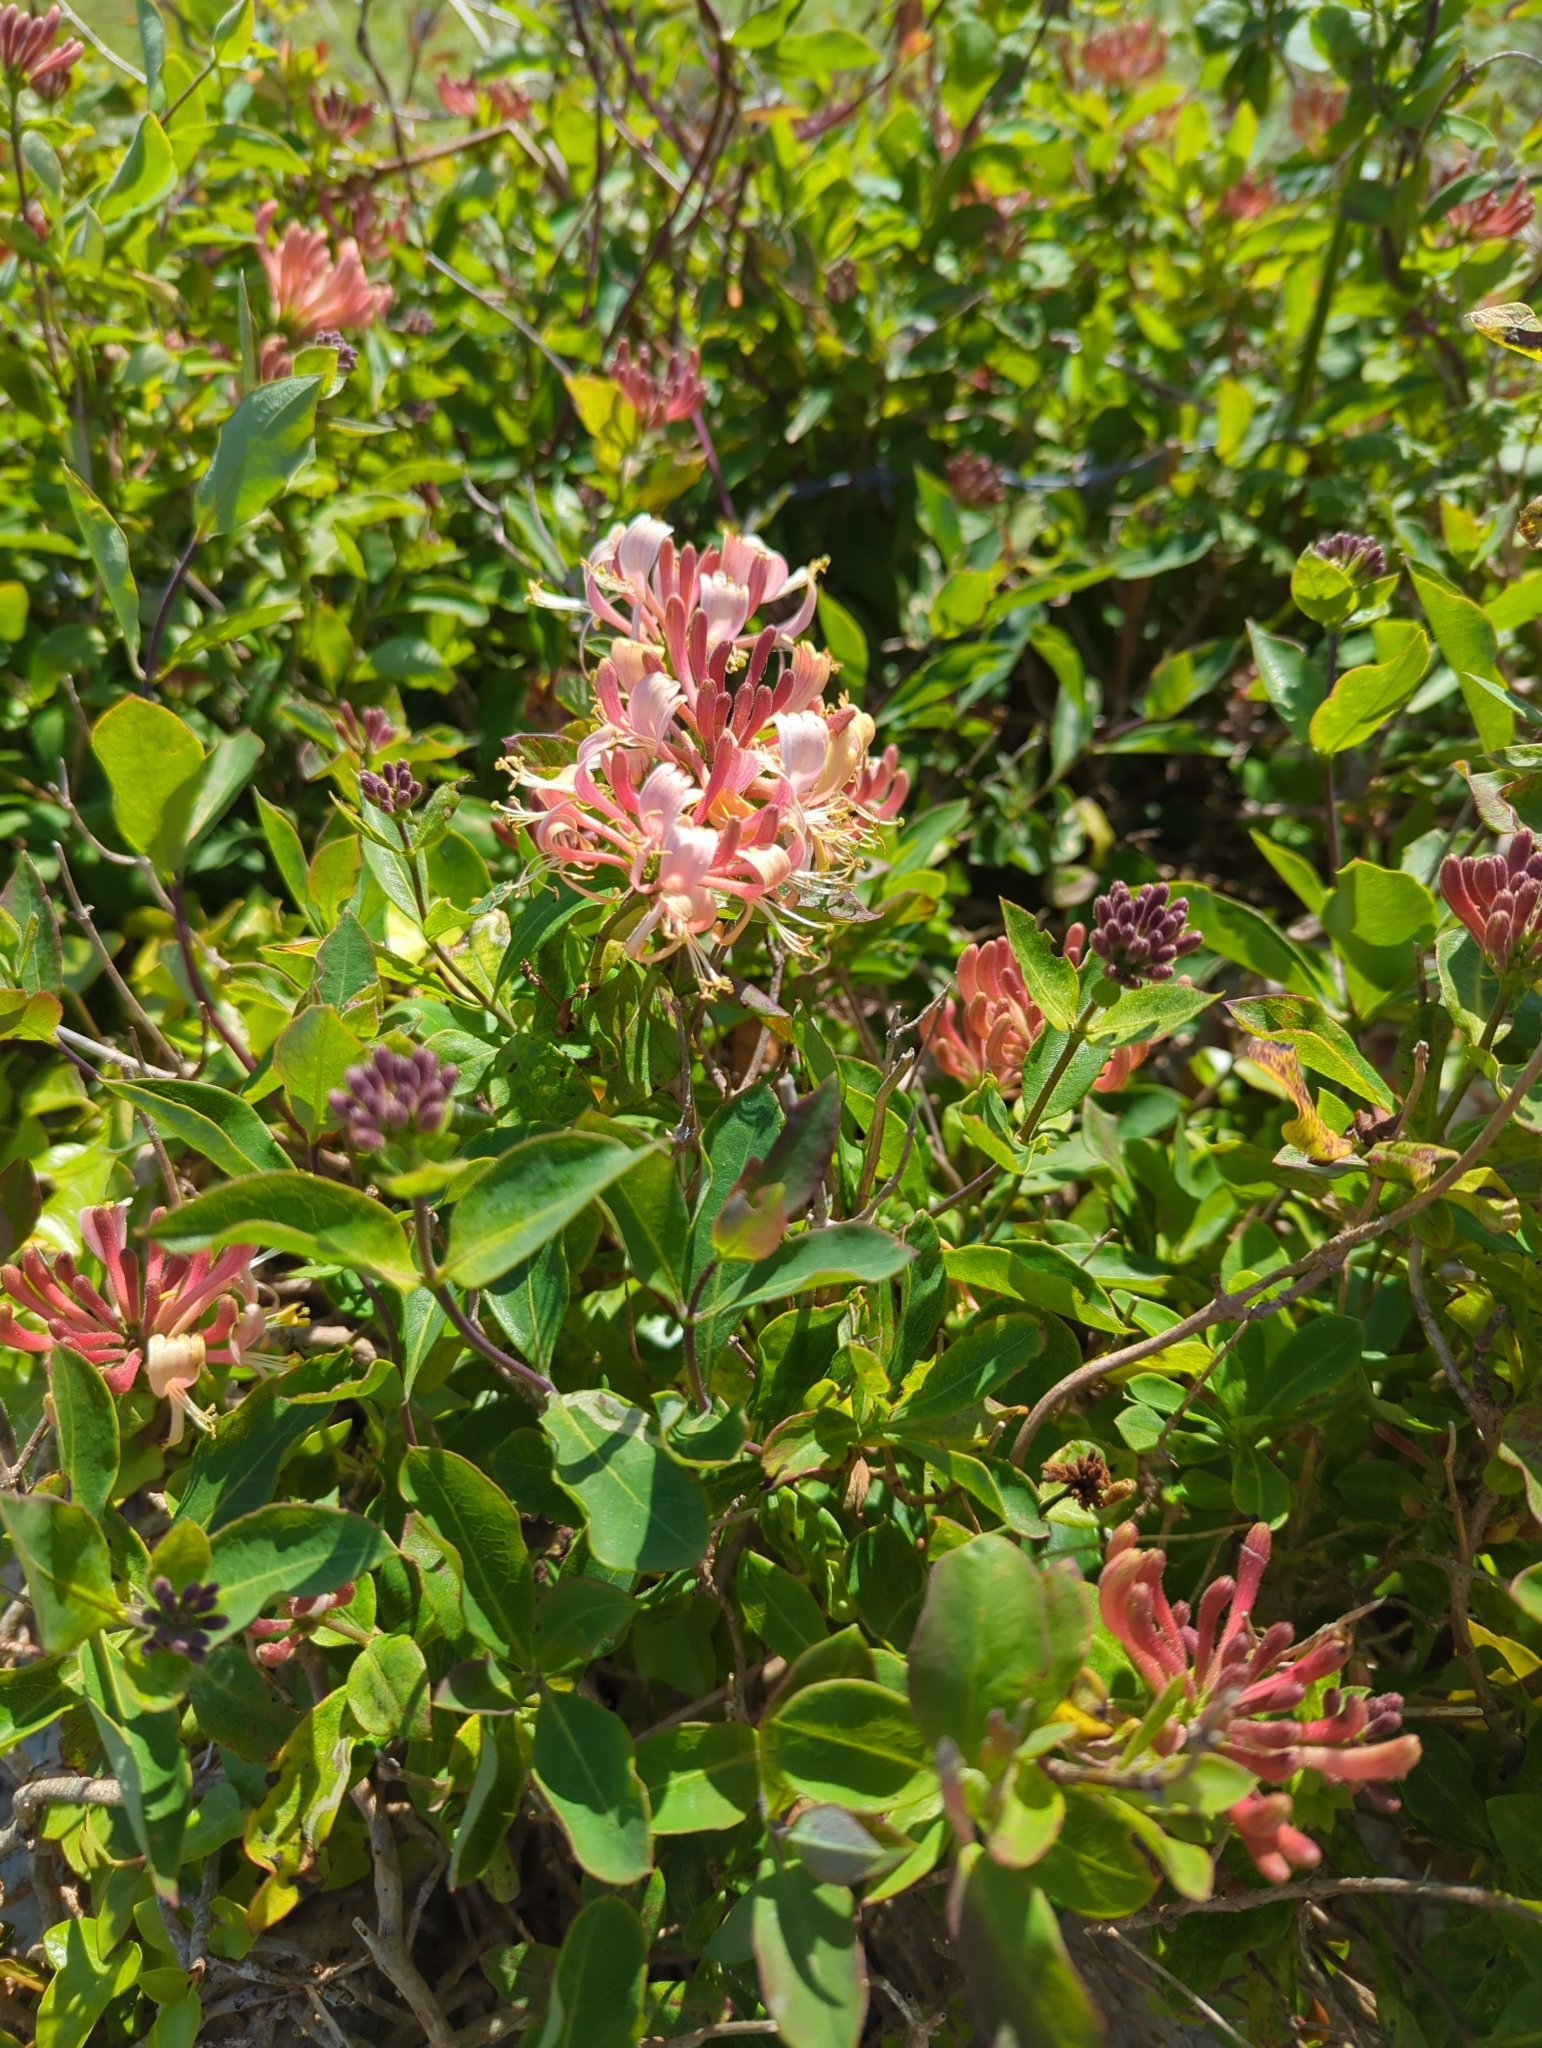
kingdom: Plantae
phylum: Tracheophyta
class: Magnoliopsida
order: Dipsacales
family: Caprifoliaceae
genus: Lonicera
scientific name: Lonicera periclymenum
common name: European honeysuckle
